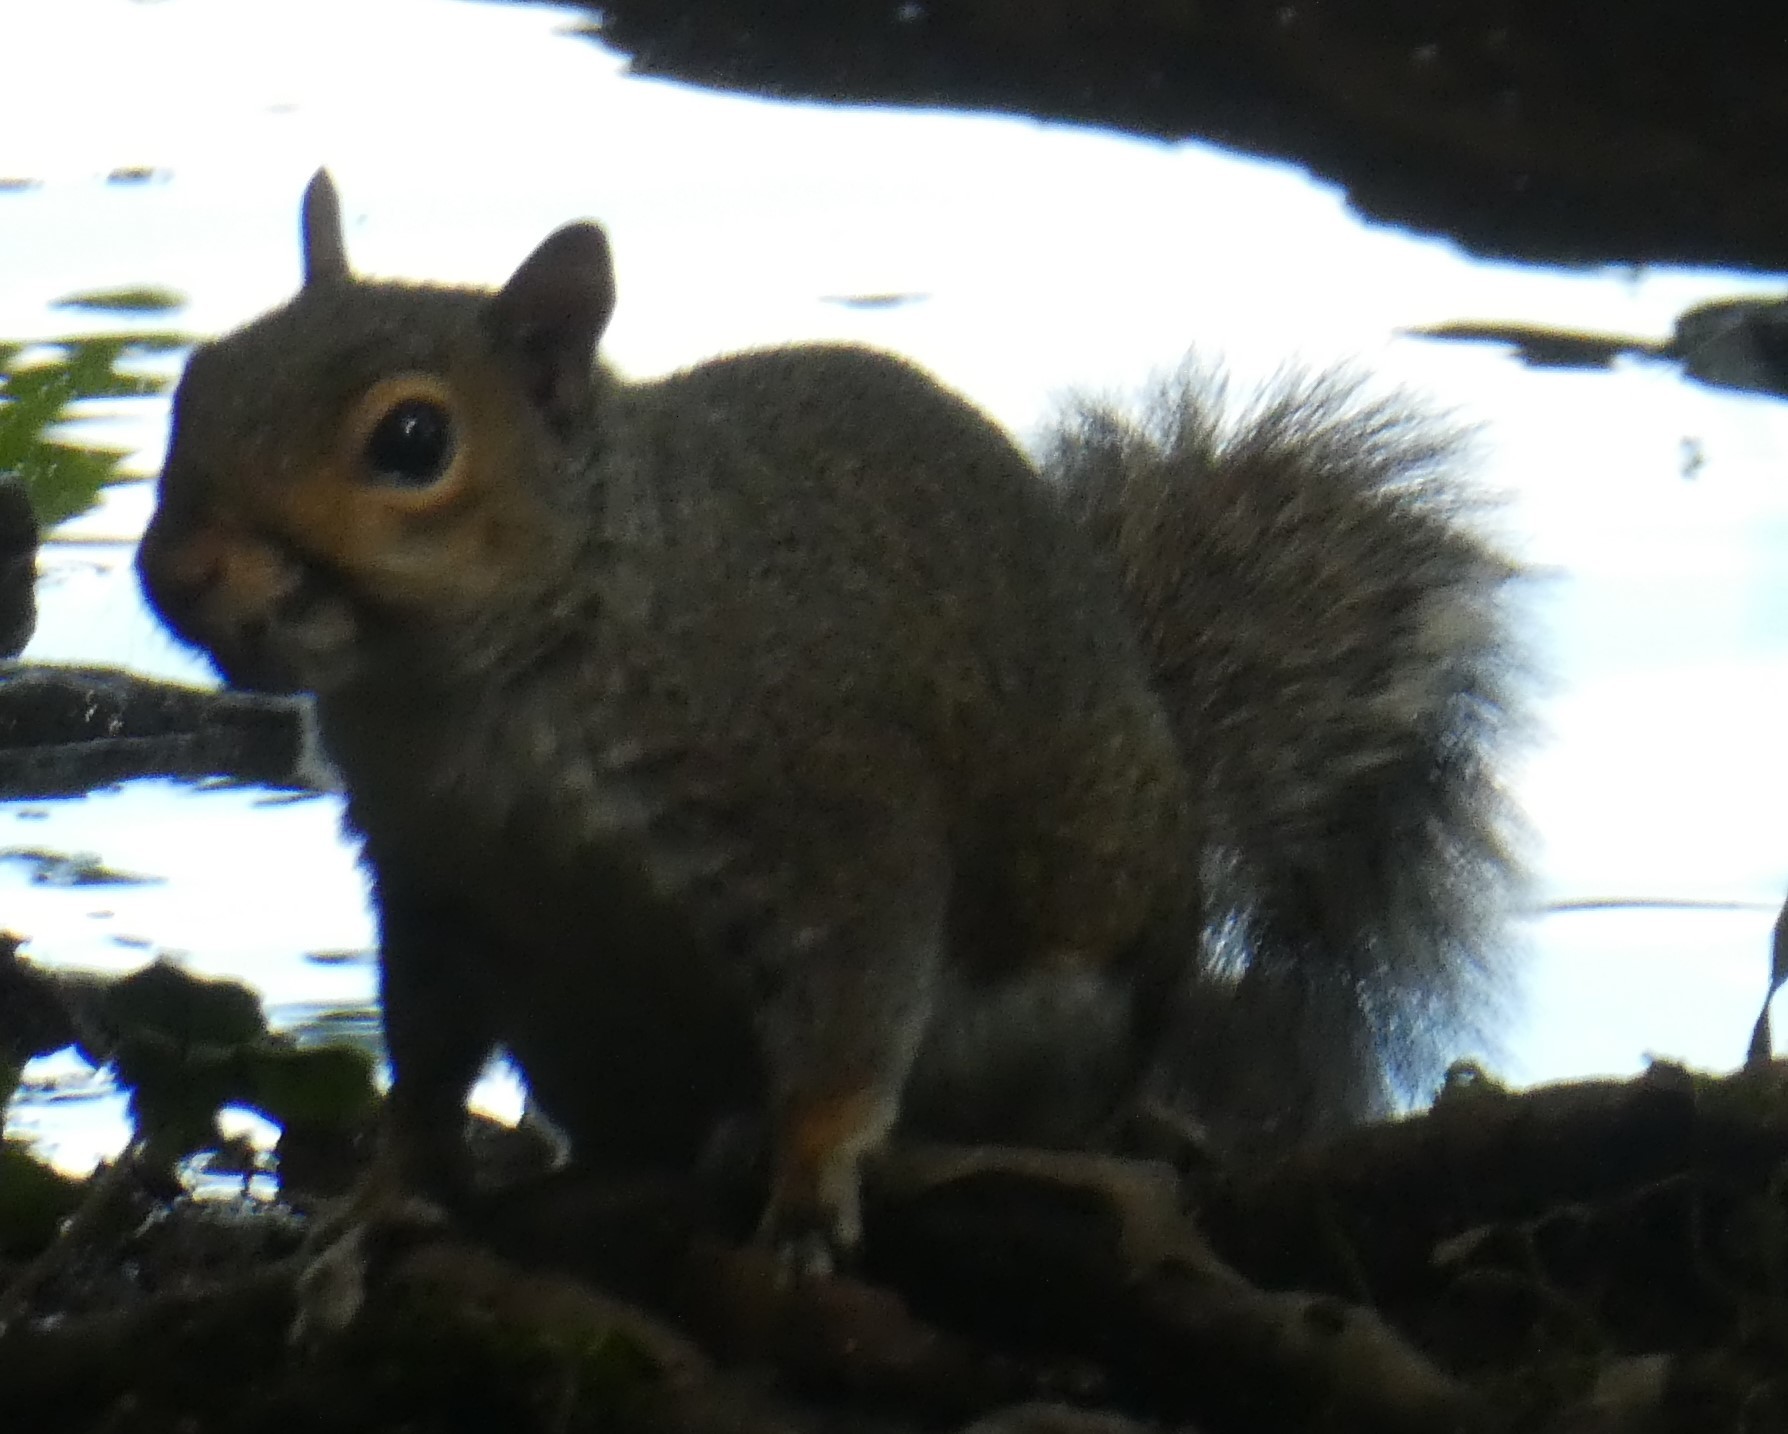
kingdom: Animalia
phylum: Chordata
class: Mammalia
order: Rodentia
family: Sciuridae
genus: Sciurus
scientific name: Sciurus carolinensis
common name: Eastern gray squirrel
